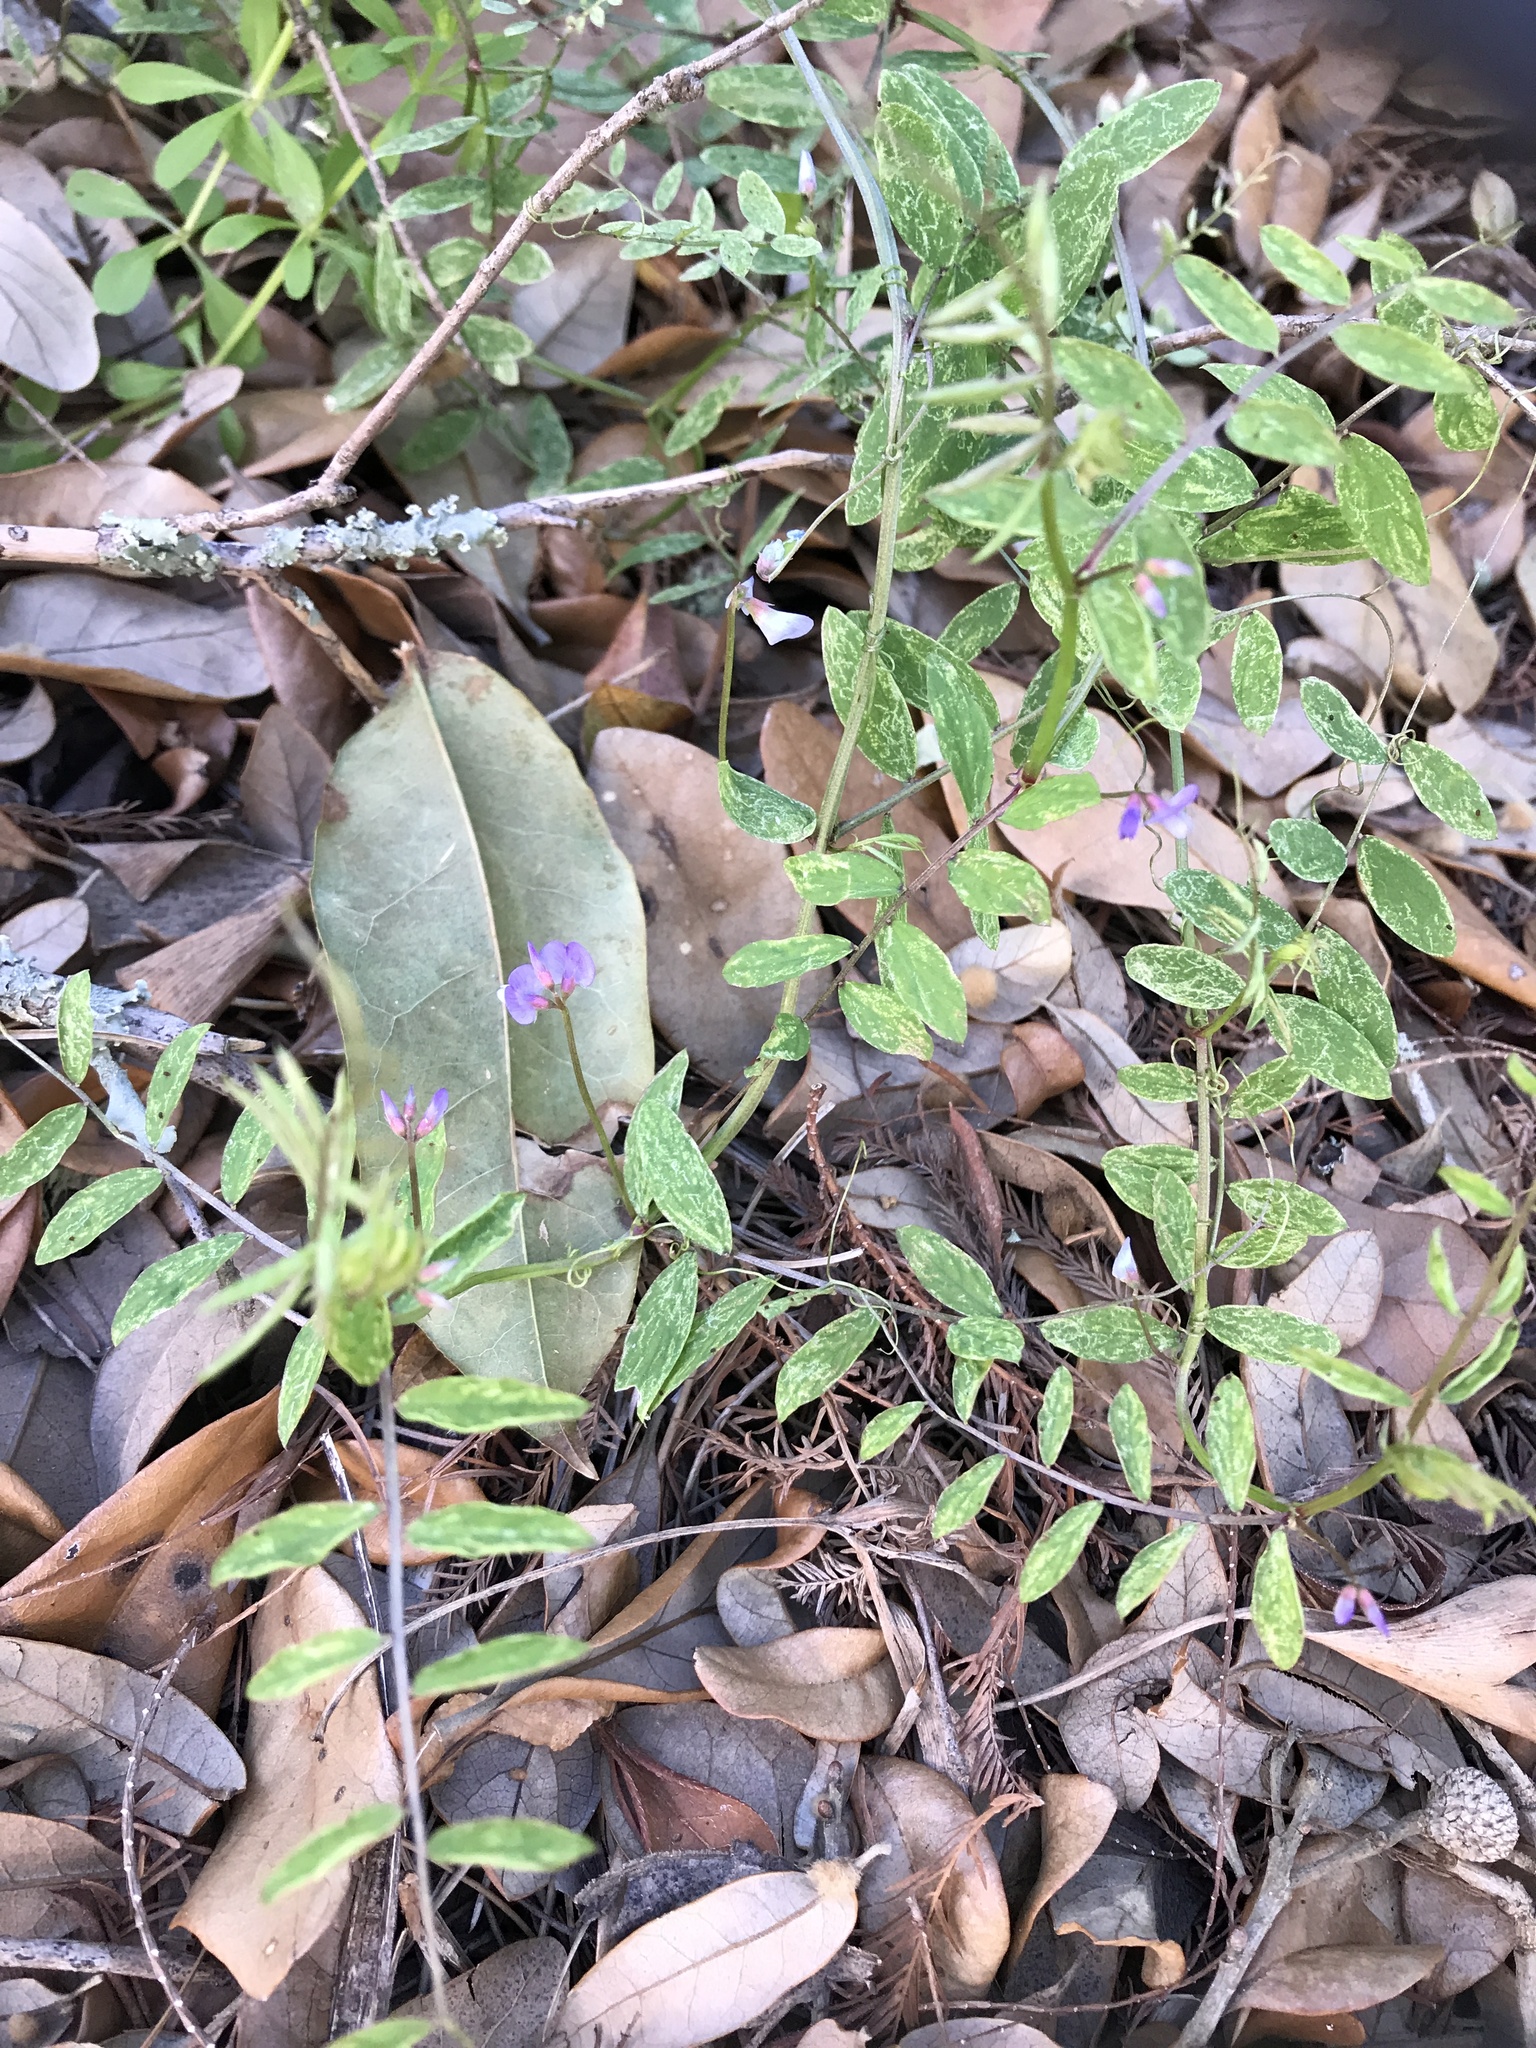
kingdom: Plantae
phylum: Tracheophyta
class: Magnoliopsida
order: Fabales
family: Fabaceae
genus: Vicia
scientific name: Vicia ludoviciana
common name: Louisiana vetch
